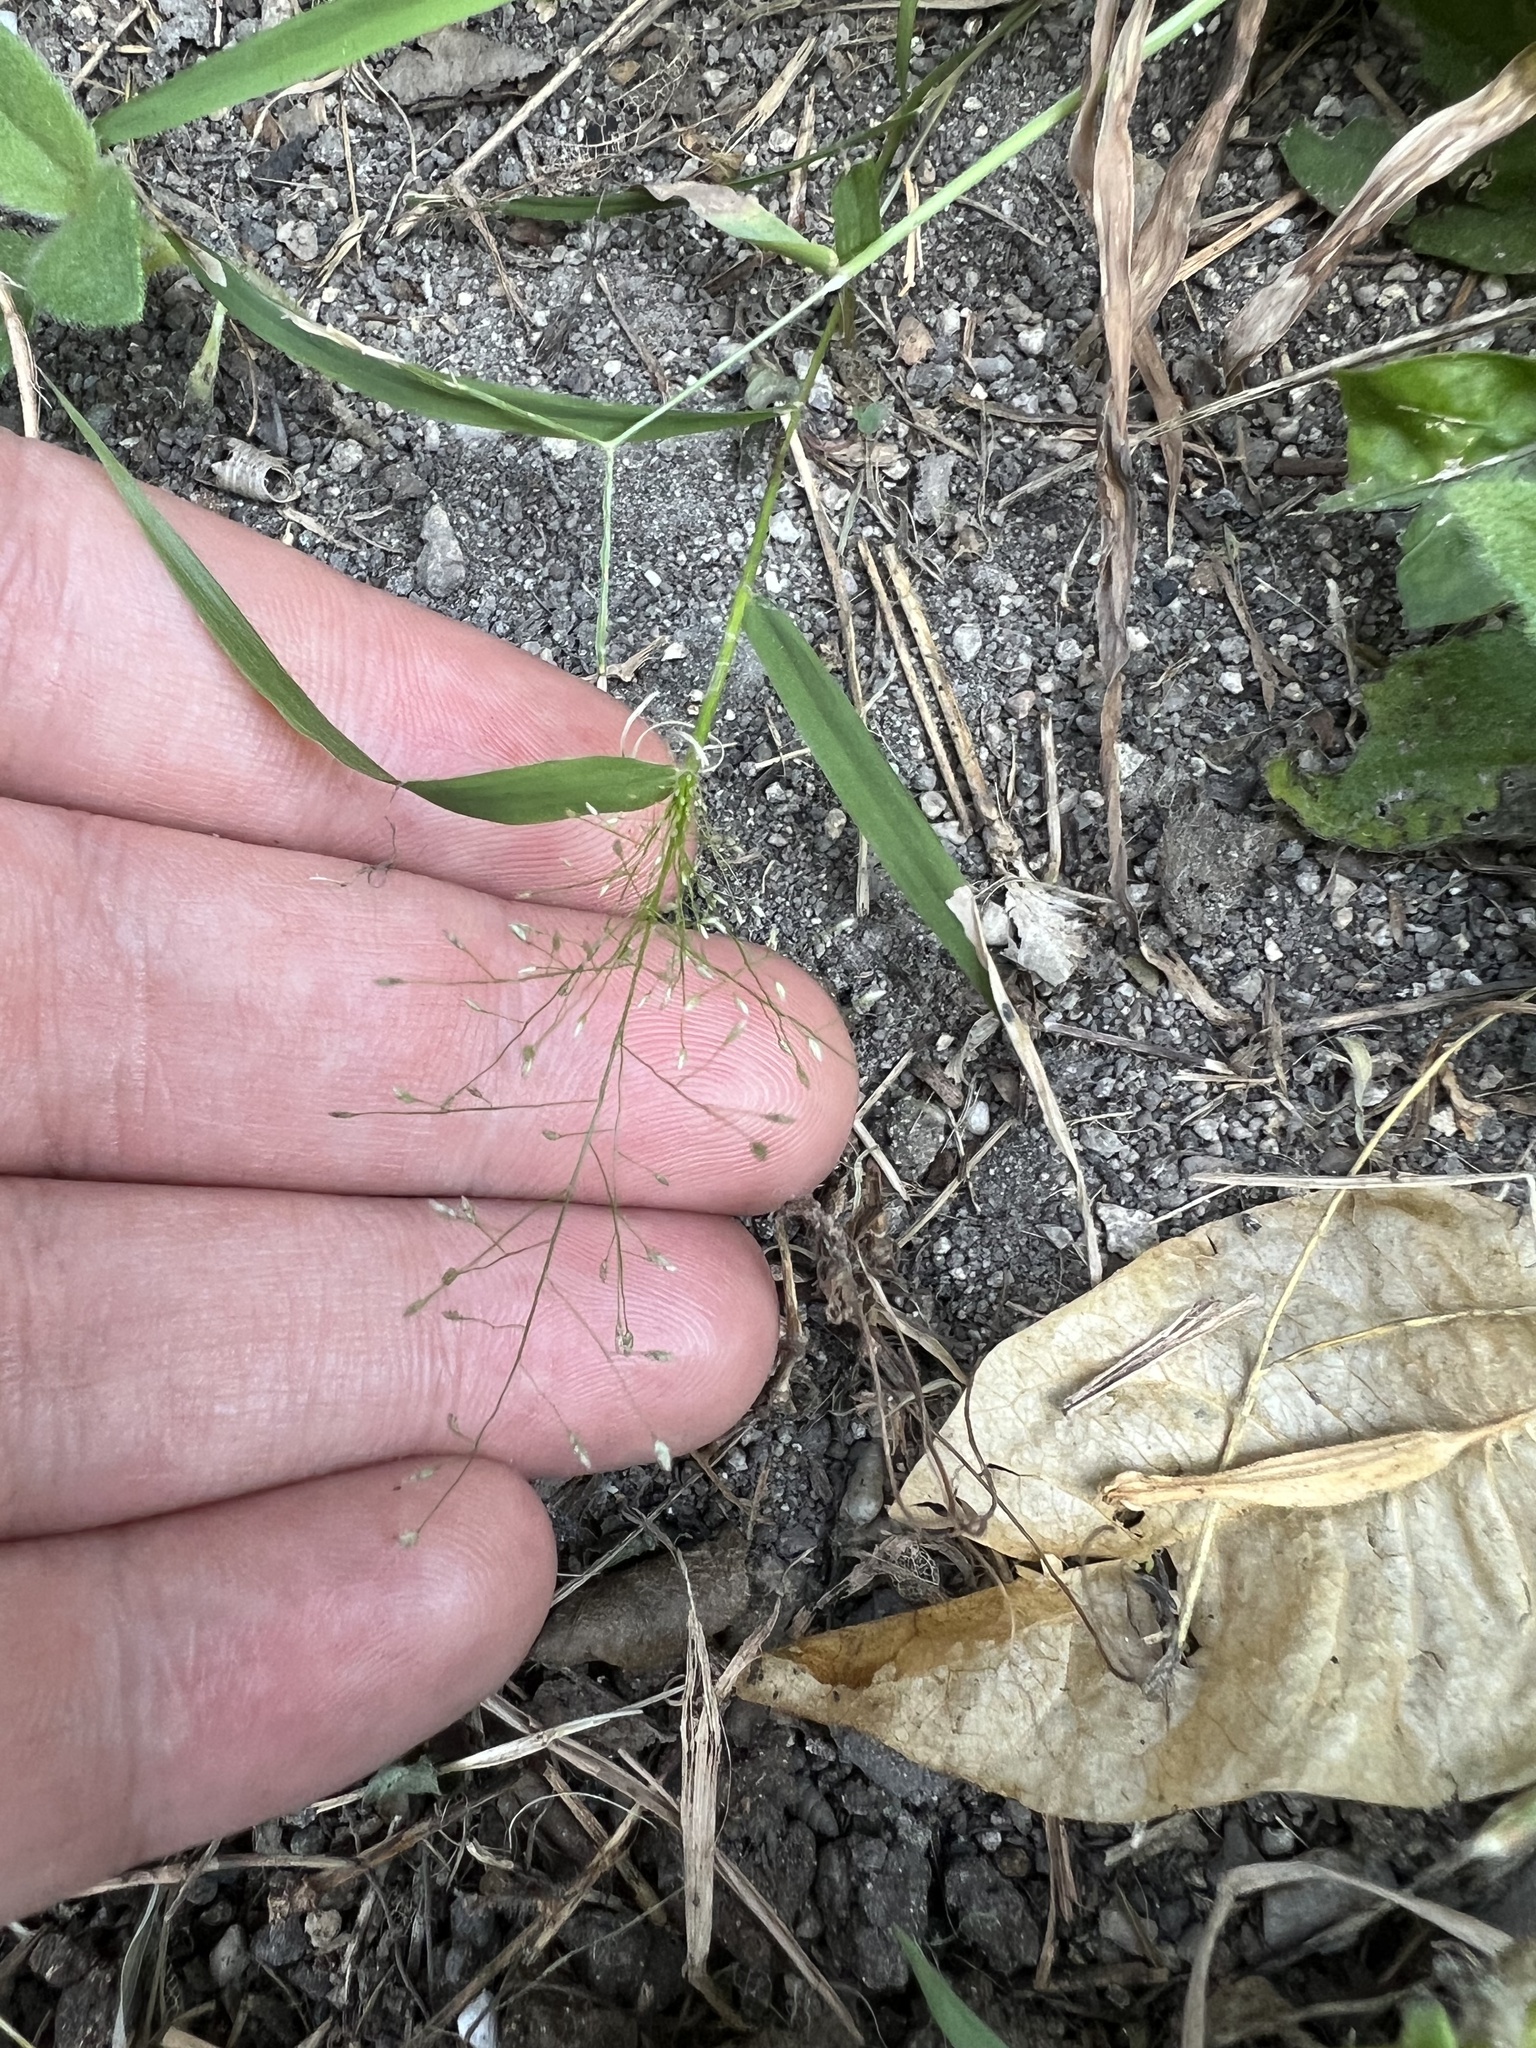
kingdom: Plantae
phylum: Tracheophyta
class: Liliopsida
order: Poales
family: Poaceae
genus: Eragrostis
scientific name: Eragrostis tenella
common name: Japanese lovegrass
